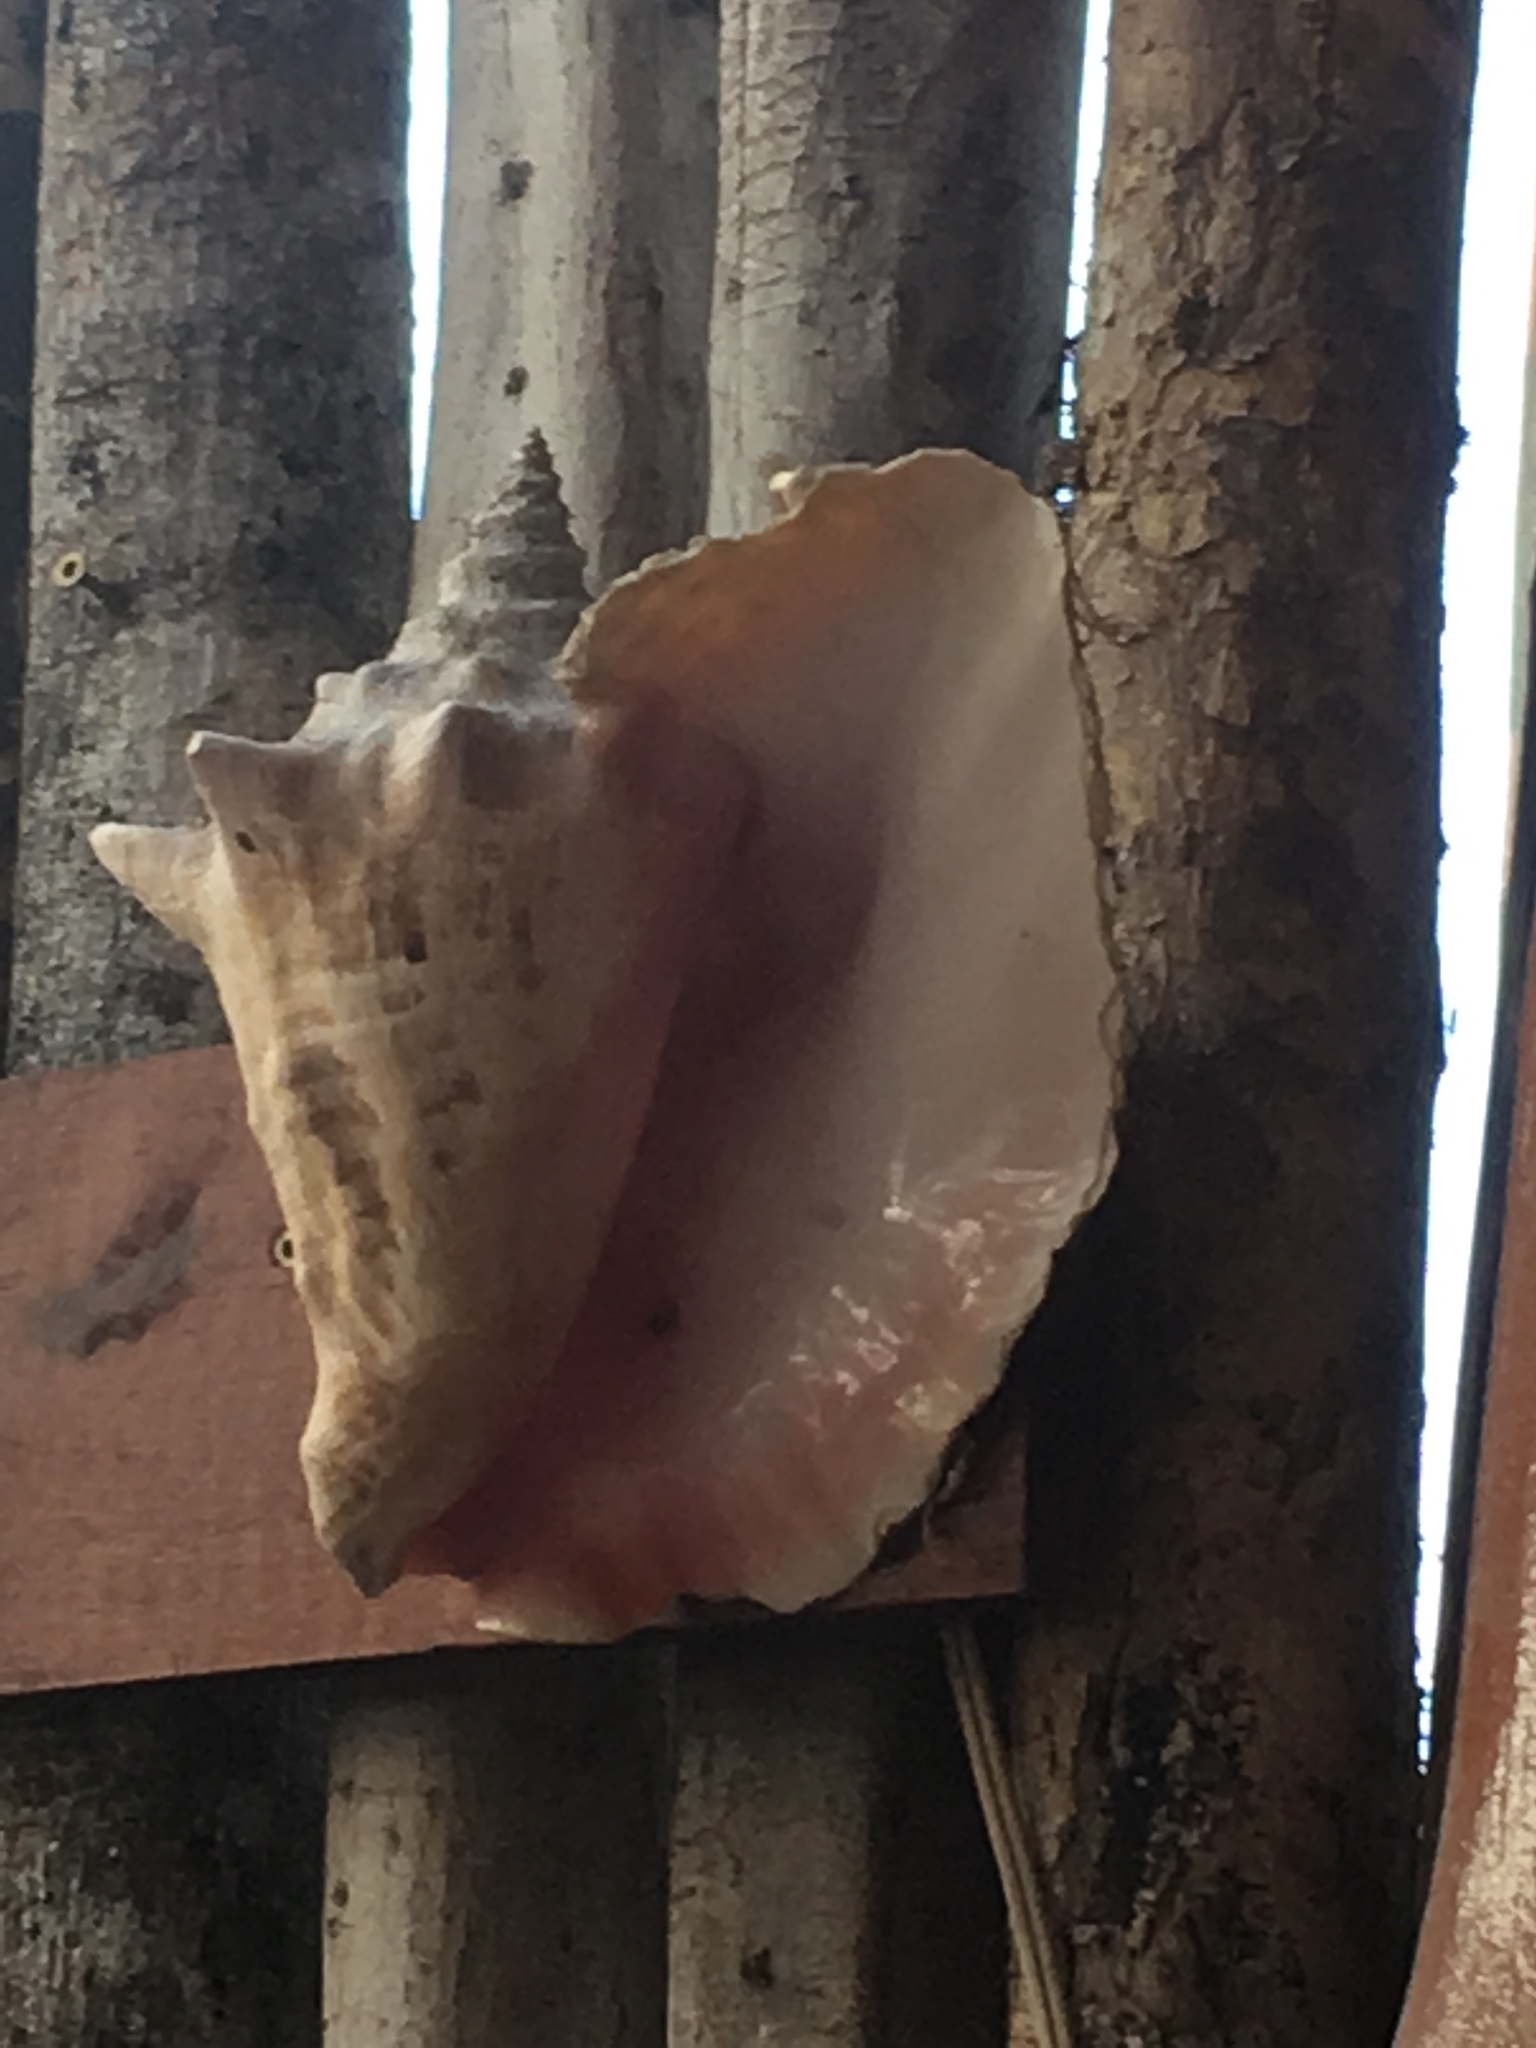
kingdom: Animalia
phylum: Mollusca
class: Gastropoda
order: Littorinimorpha
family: Strombidae
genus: Aliger
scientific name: Aliger gigas
